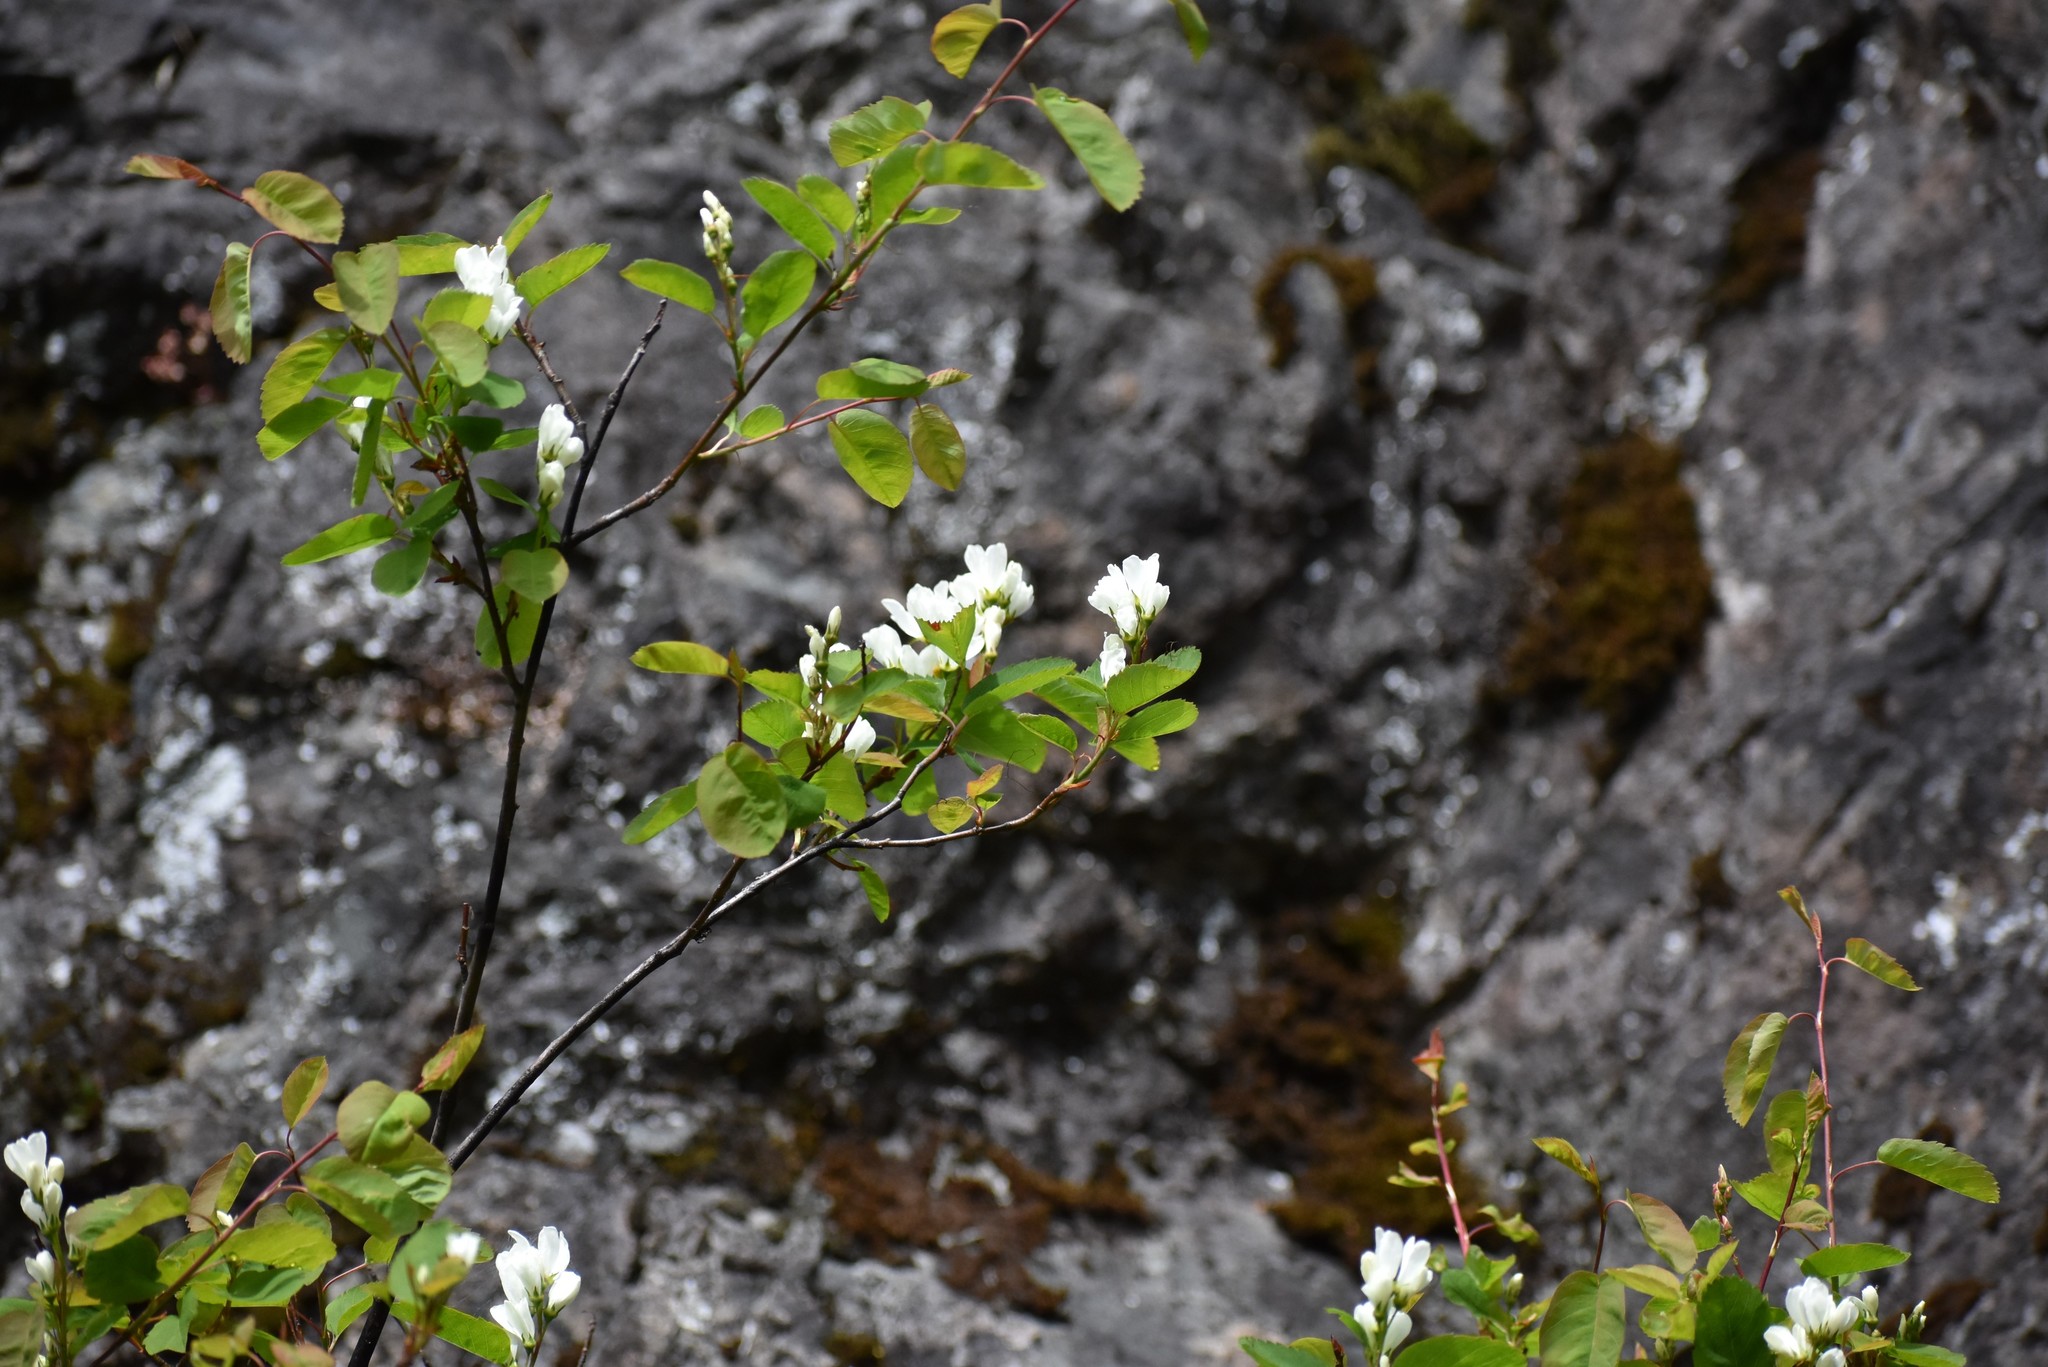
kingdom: Plantae
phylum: Tracheophyta
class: Magnoliopsida
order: Rosales
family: Rosaceae
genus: Amelanchier
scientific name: Amelanchier alnifolia
